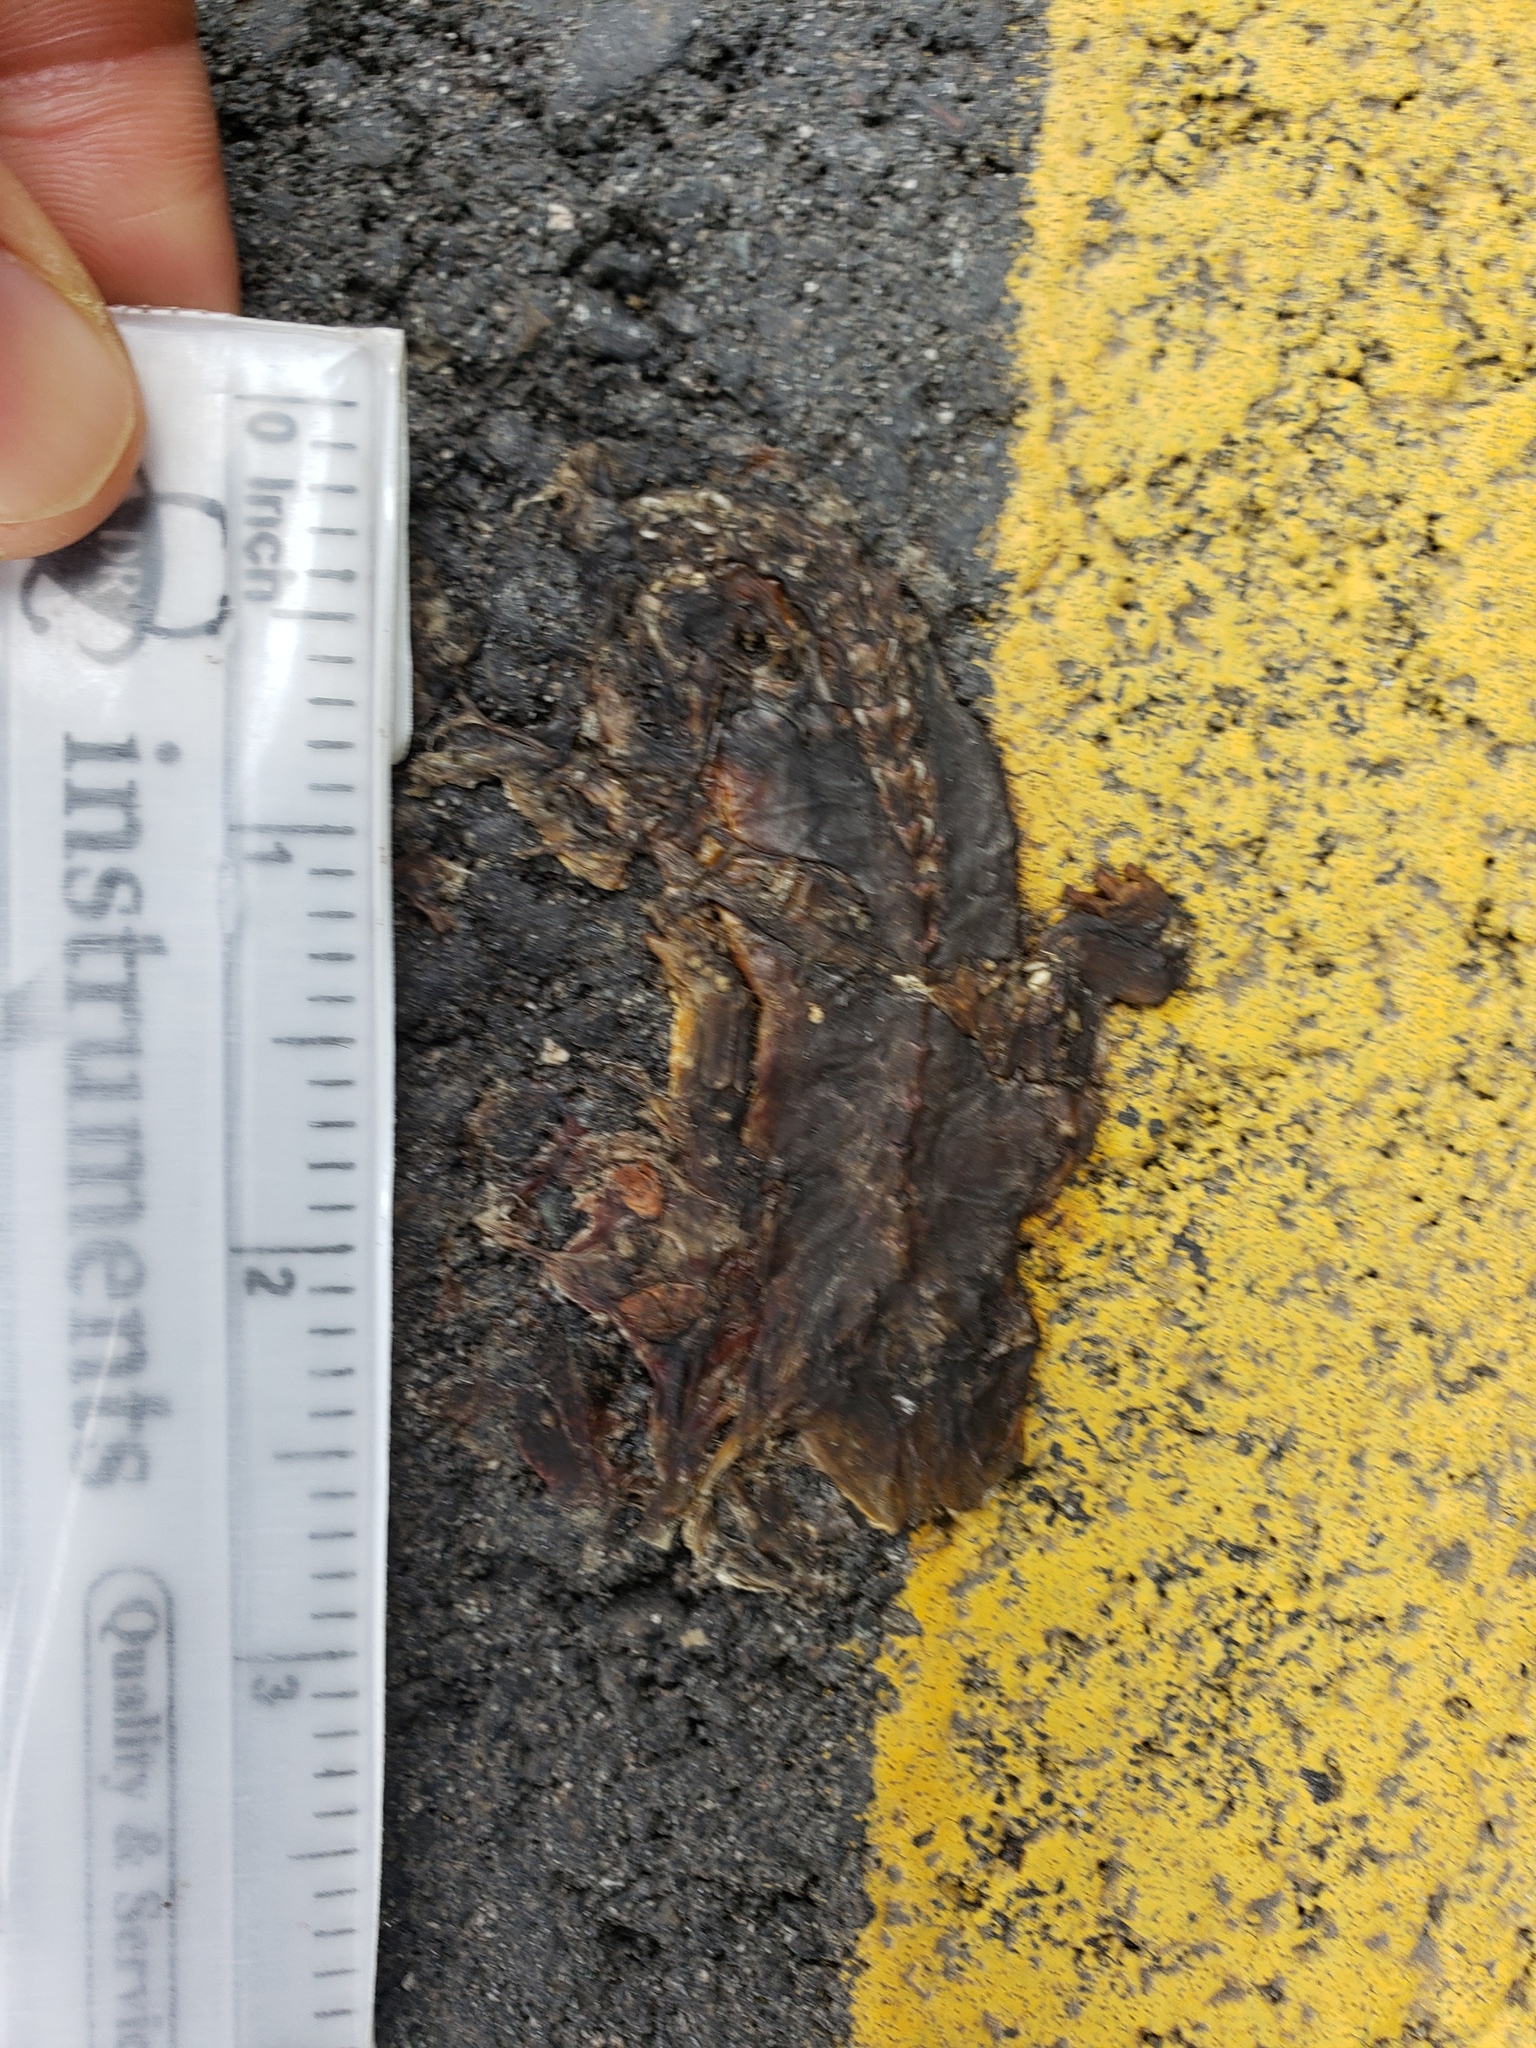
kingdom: Animalia
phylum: Chordata
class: Amphibia
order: Caudata
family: Salamandridae
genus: Taricha
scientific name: Taricha
